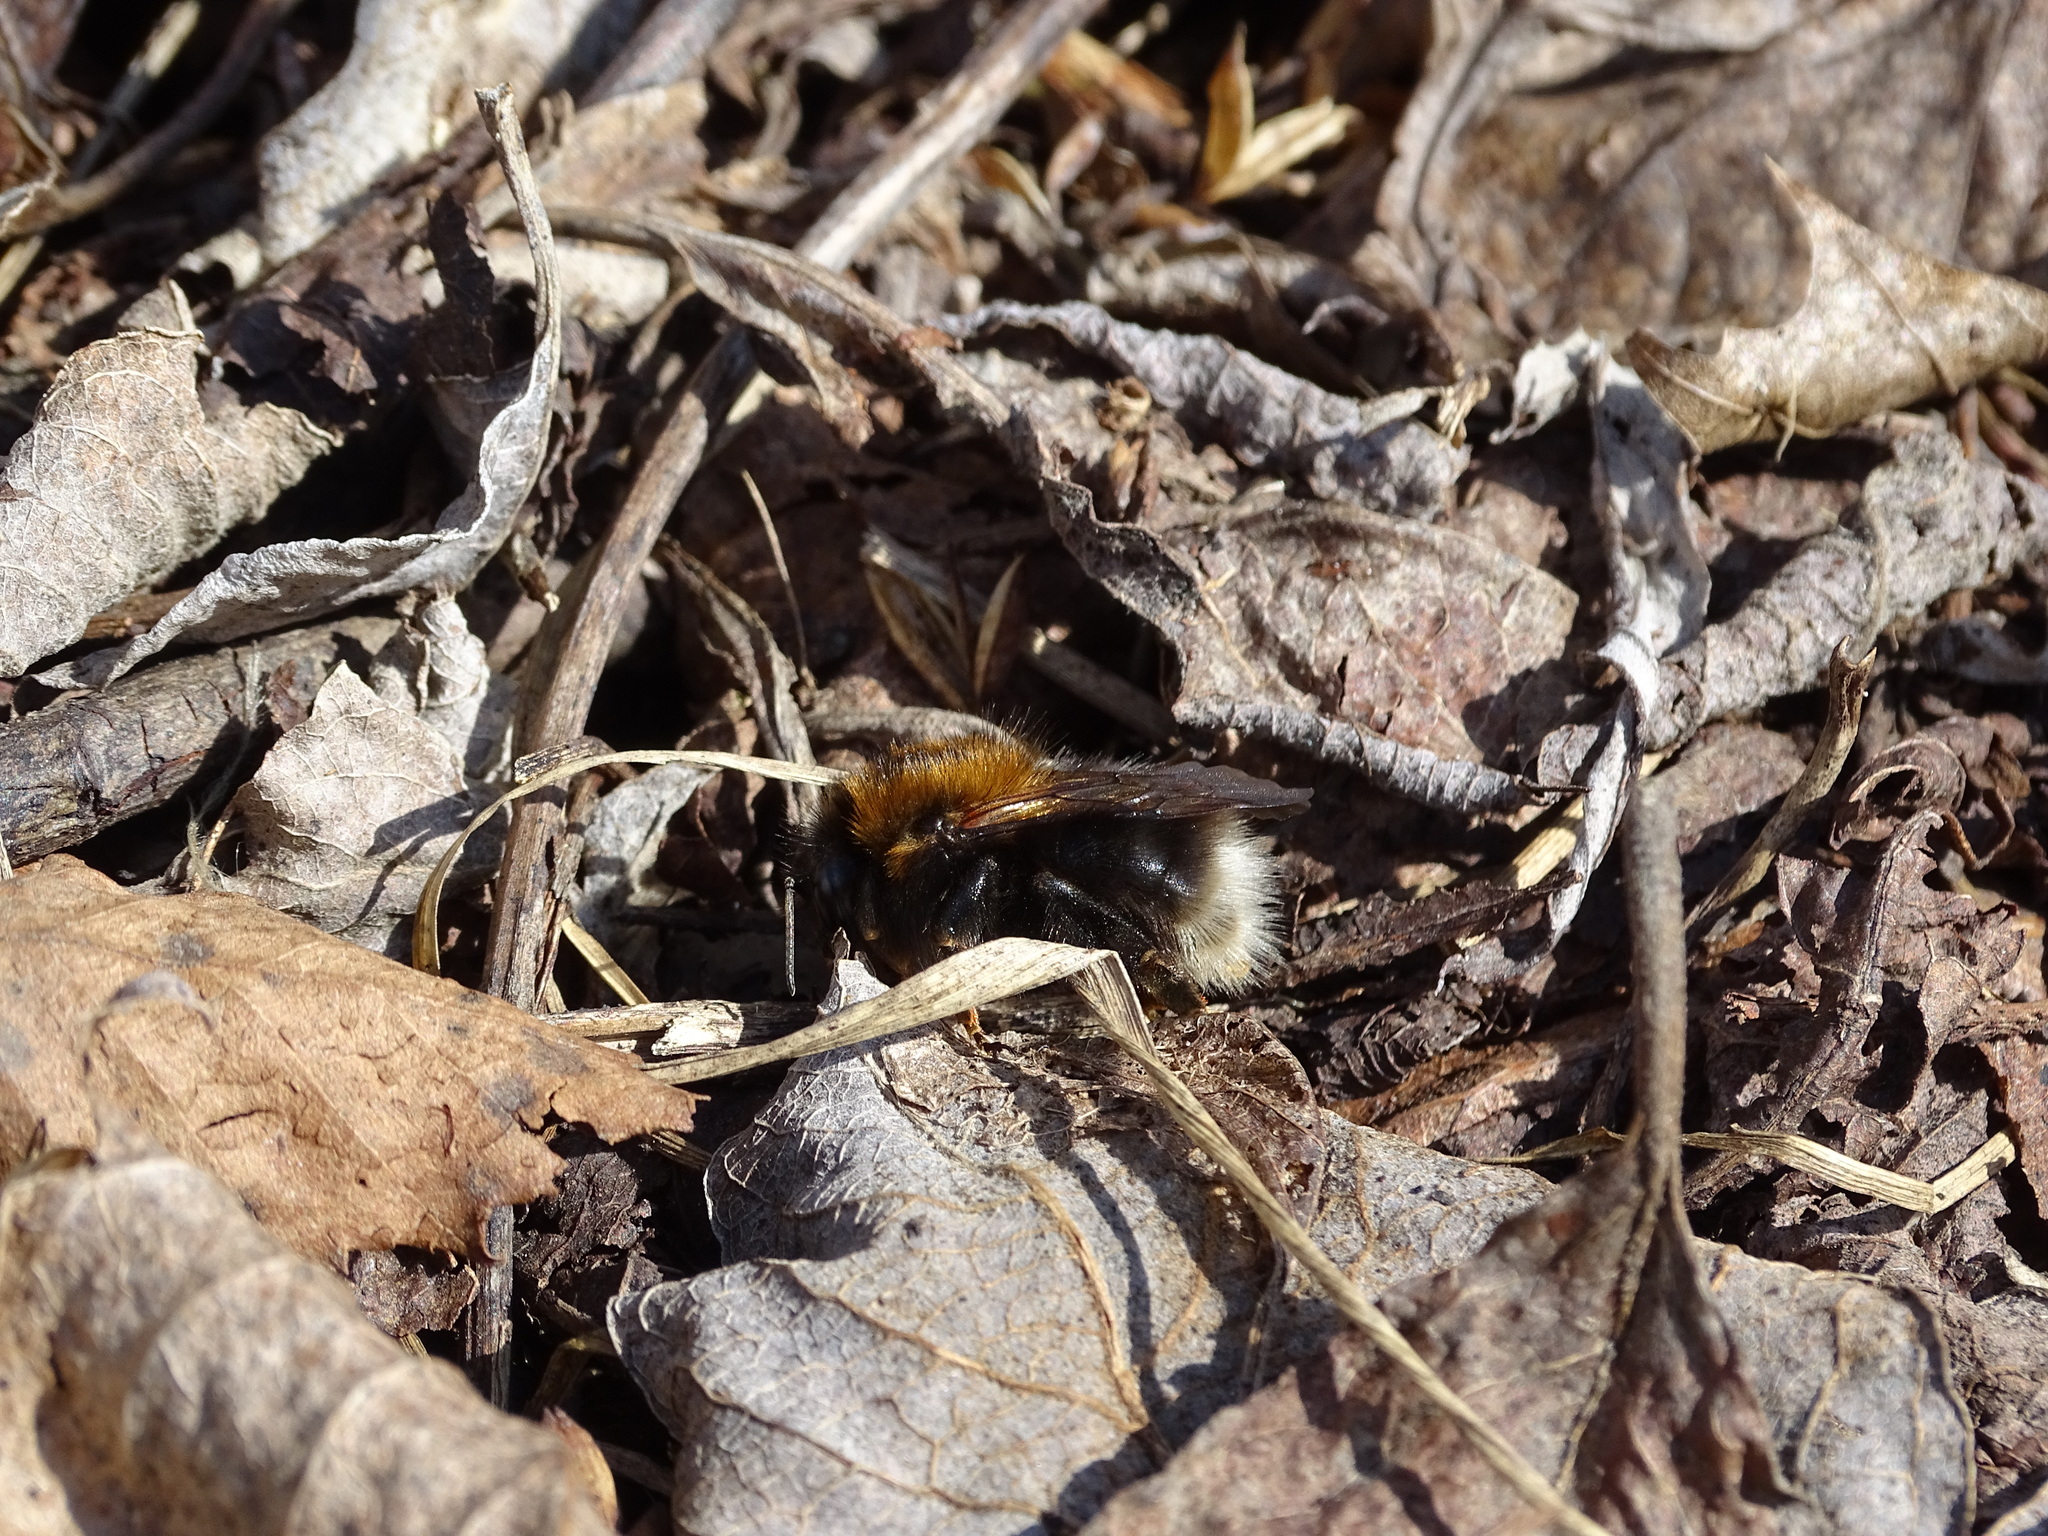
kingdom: Animalia
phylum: Arthropoda
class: Insecta
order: Hymenoptera
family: Apidae
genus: Bombus
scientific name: Bombus hypnorum
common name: New garden bumblebee
